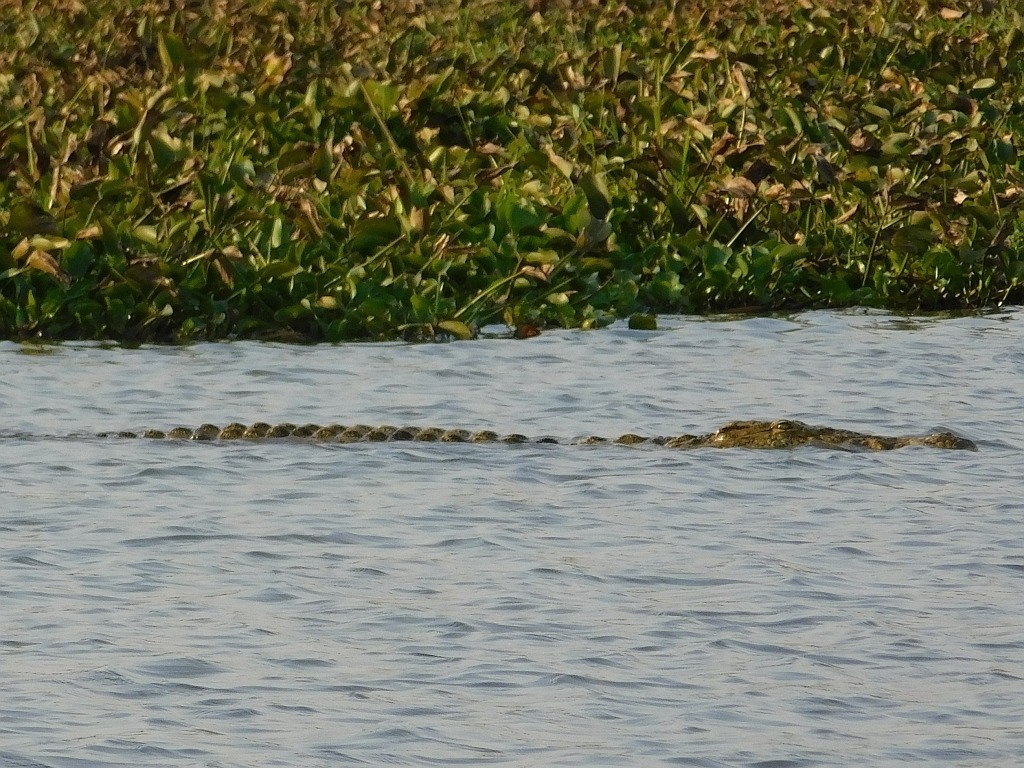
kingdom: Animalia
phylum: Chordata
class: Crocodylia
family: Crocodylidae
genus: Crocodylus
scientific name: Crocodylus niloticus
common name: Nile crocodile
